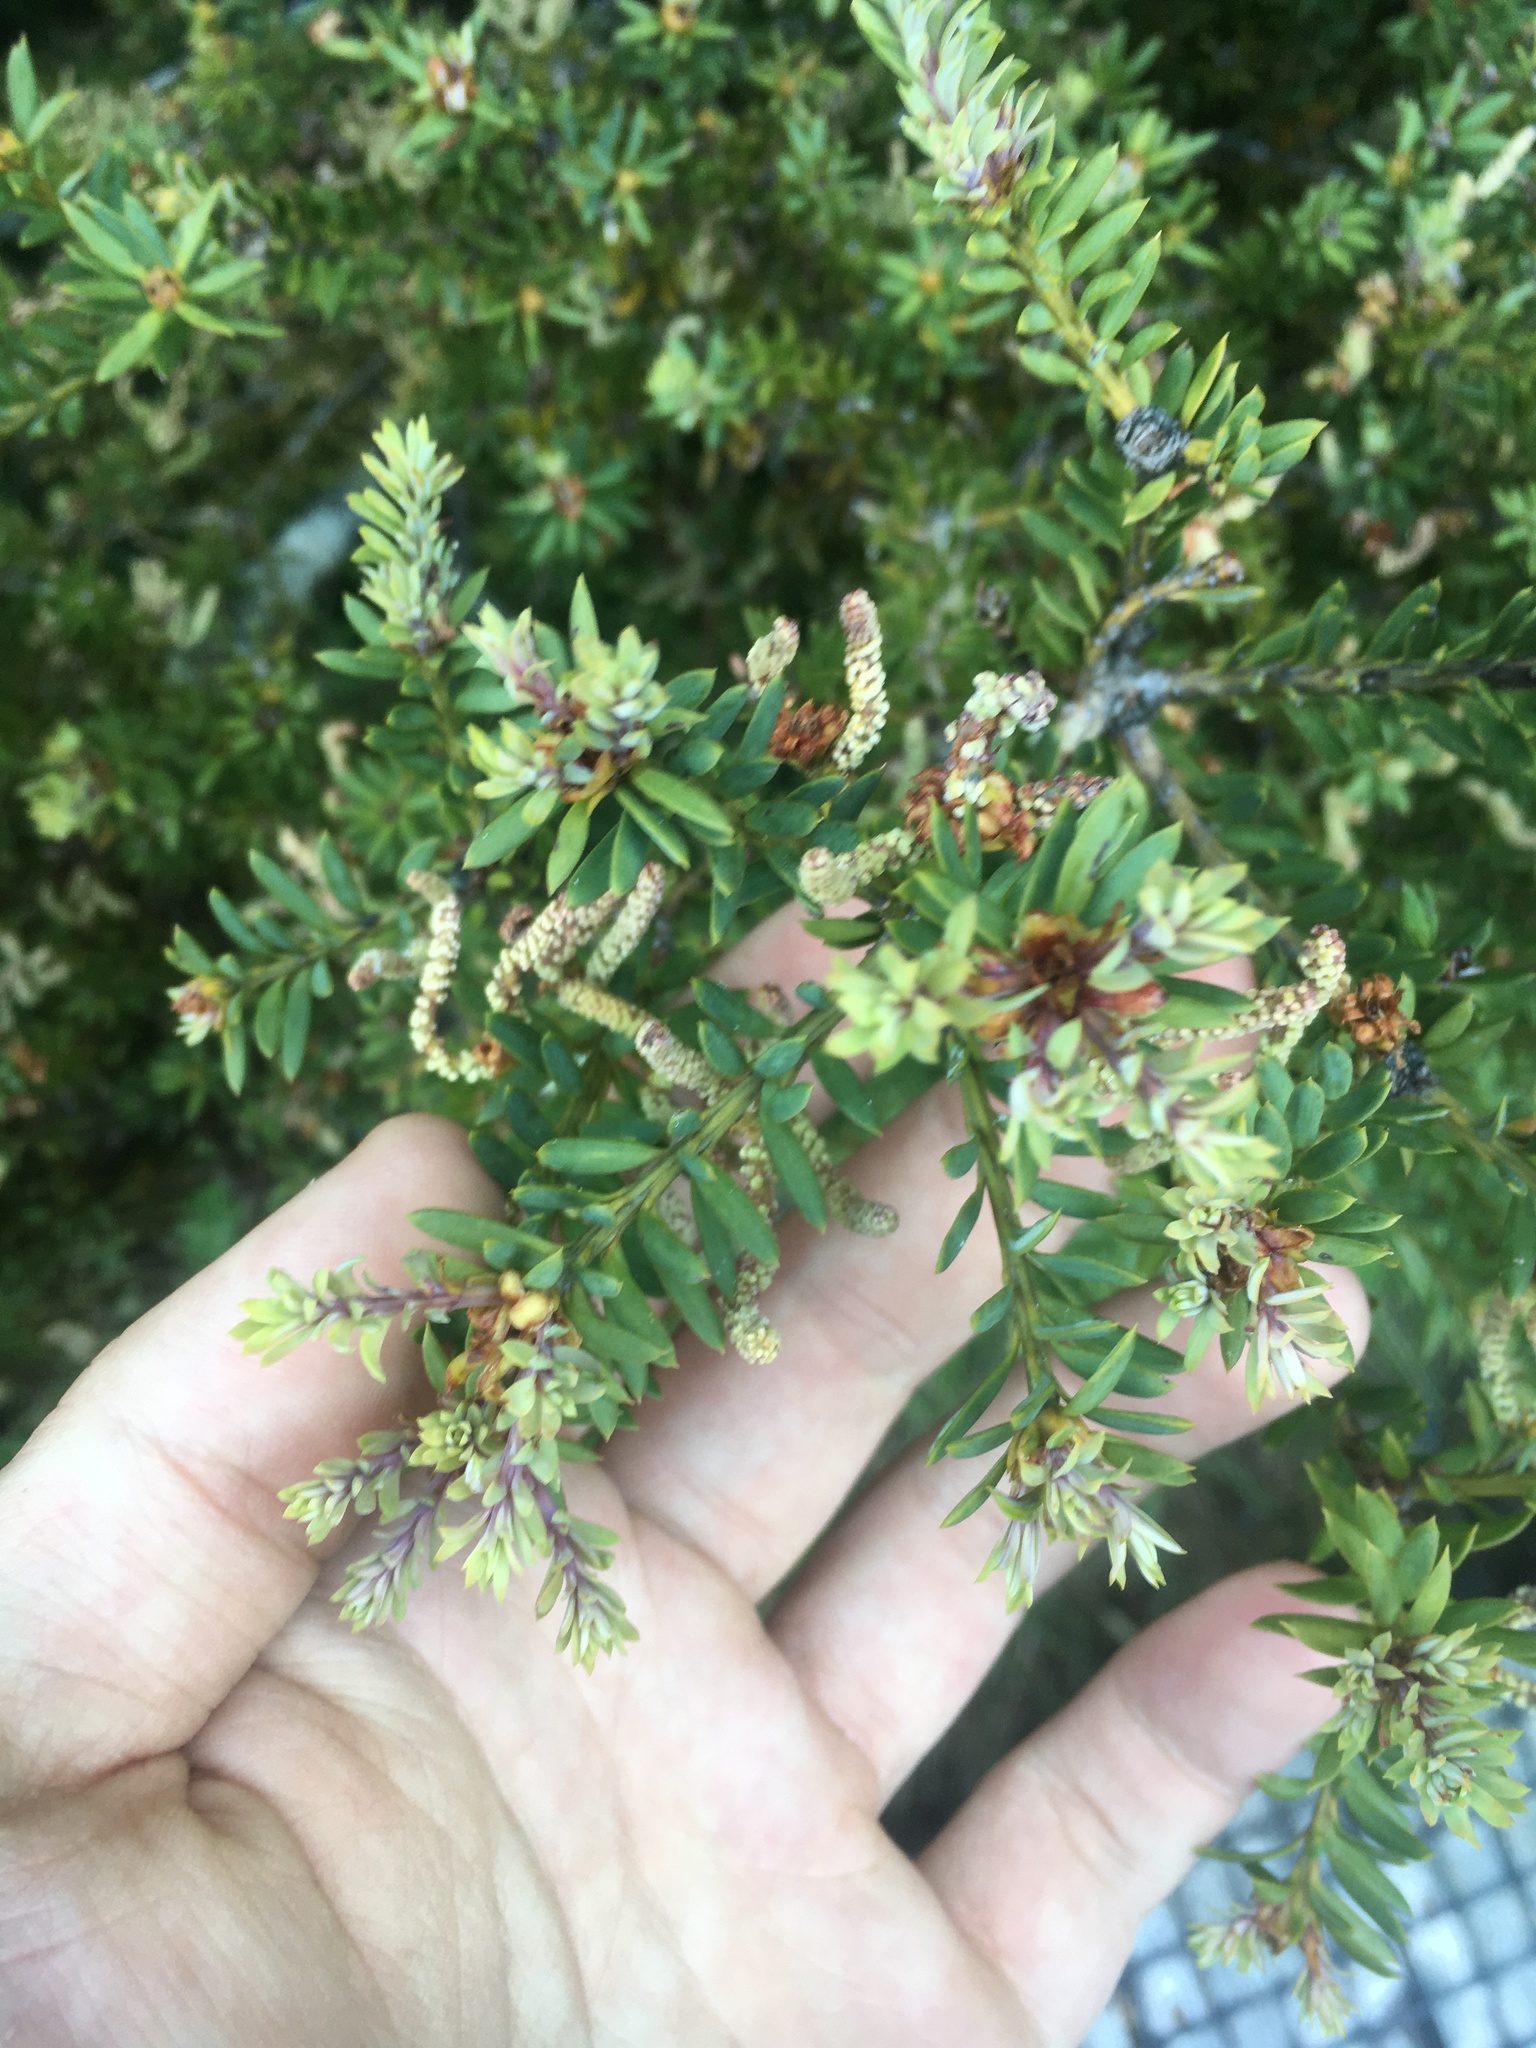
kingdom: Plantae
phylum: Tracheophyta
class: Pinopsida
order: Pinales
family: Podocarpaceae
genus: Podocarpus
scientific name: Podocarpus nivalis
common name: Alpine totara
